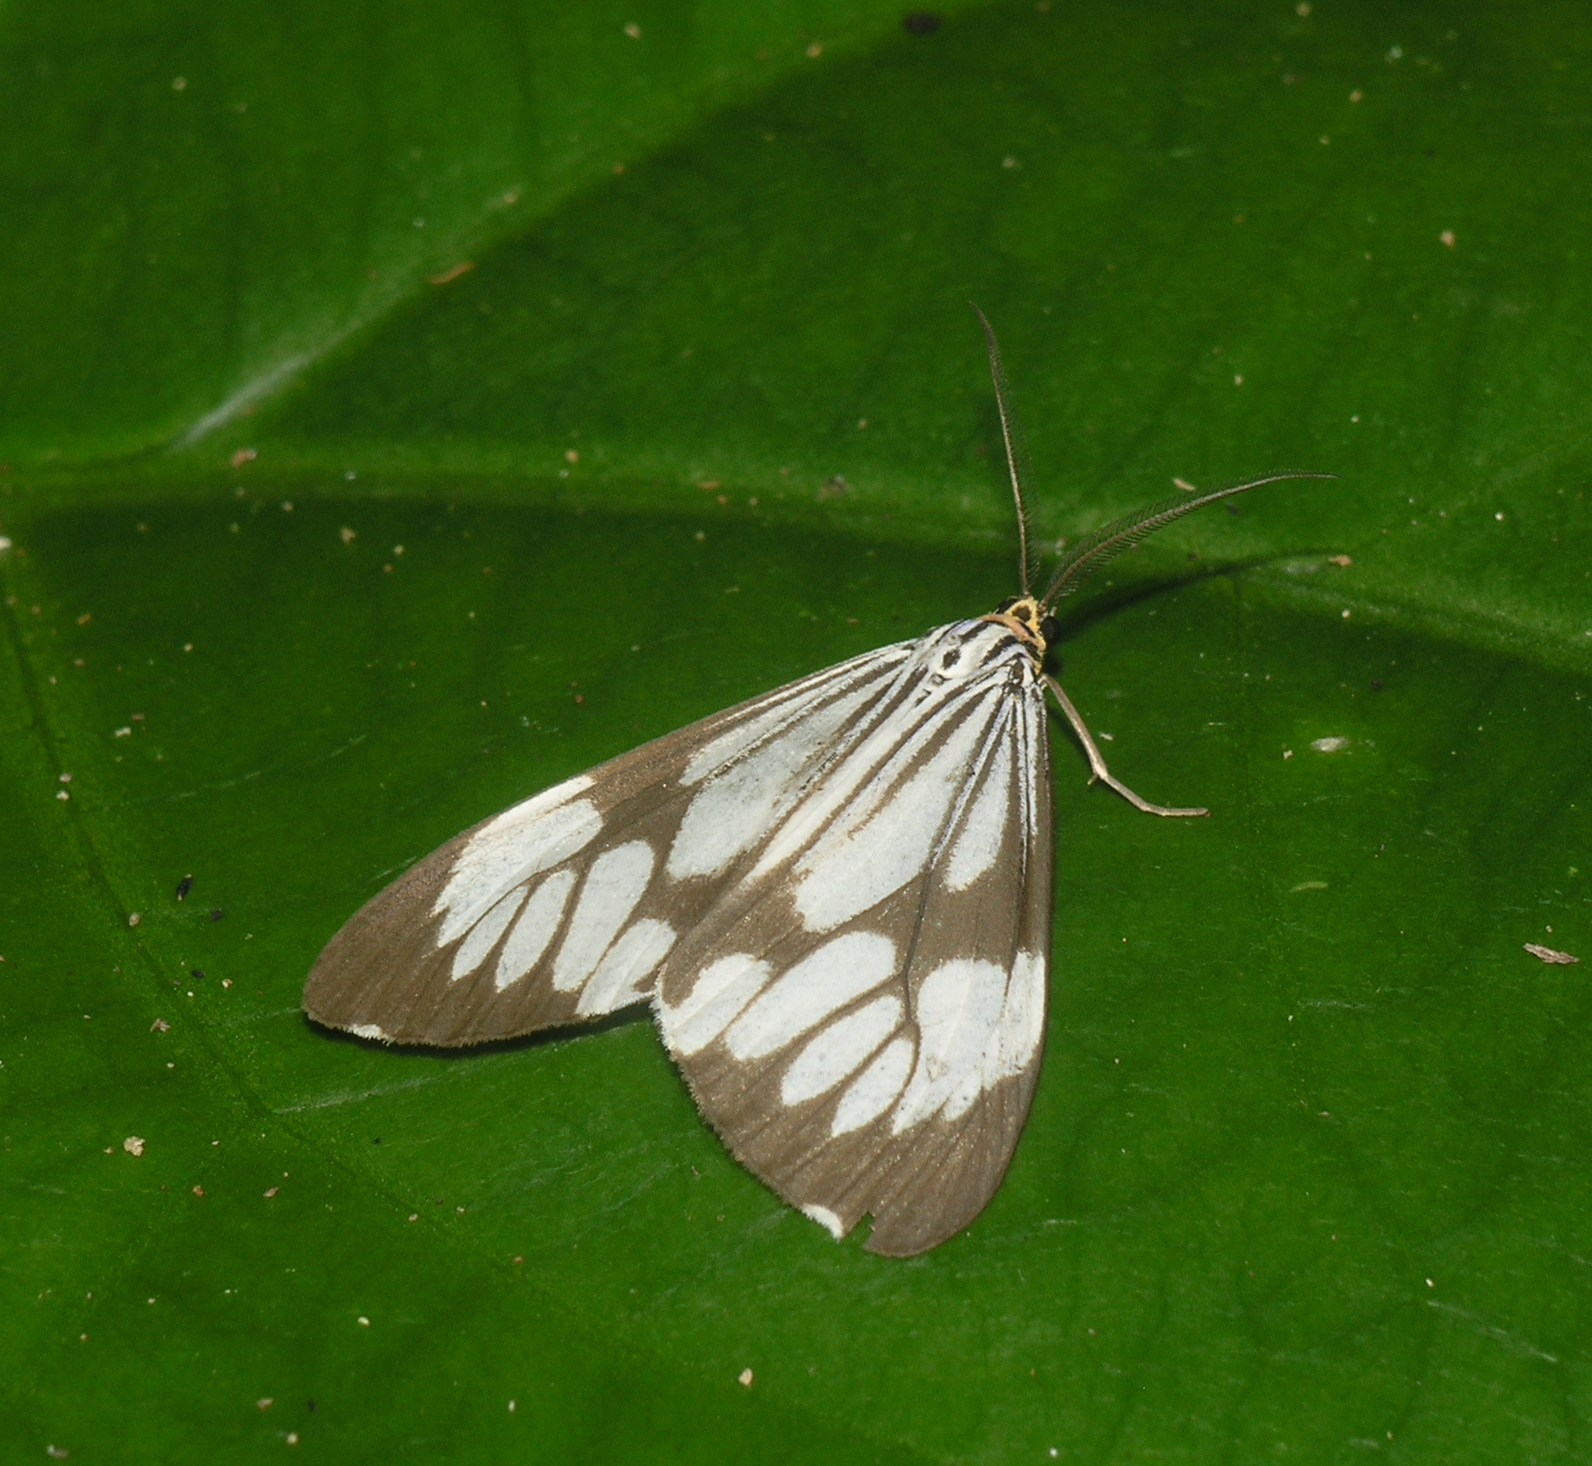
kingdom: Animalia
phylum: Arthropoda
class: Insecta
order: Lepidoptera
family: Erebidae
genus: Nyctemera
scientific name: Nyctemera coleta
